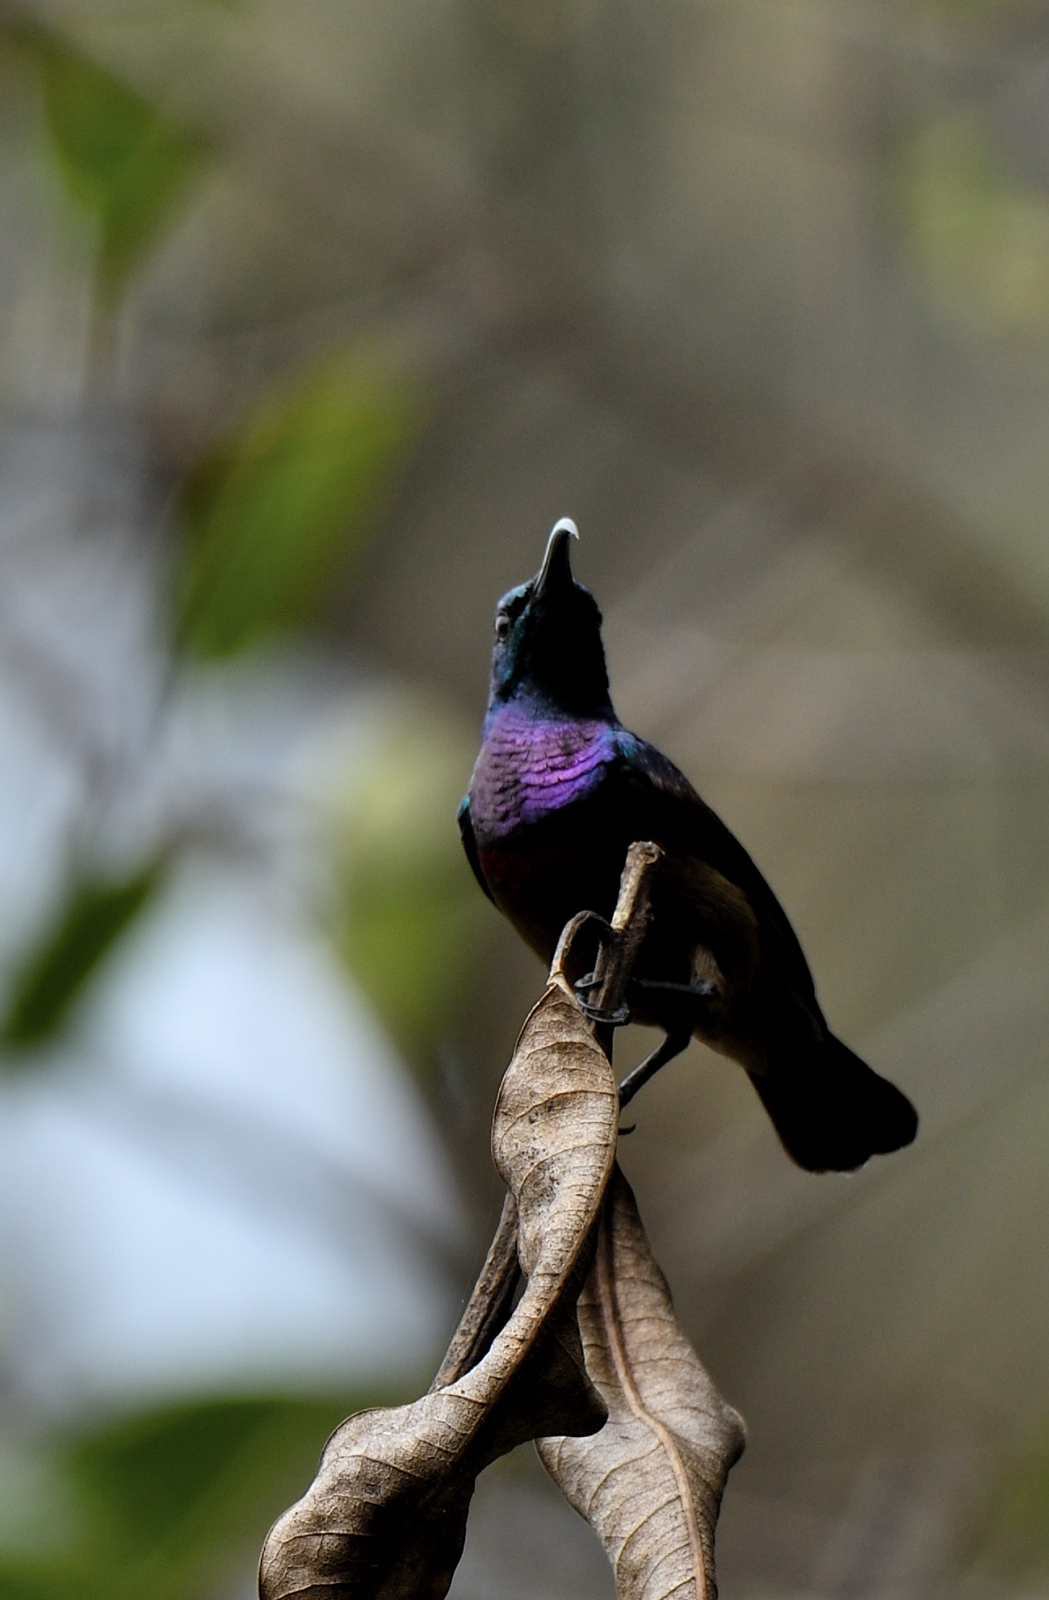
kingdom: Animalia
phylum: Chordata
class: Aves
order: Passeriformes
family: Nectariniidae
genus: Cinnyris
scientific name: Cinnyris lotenius
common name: Loten's sunbird
